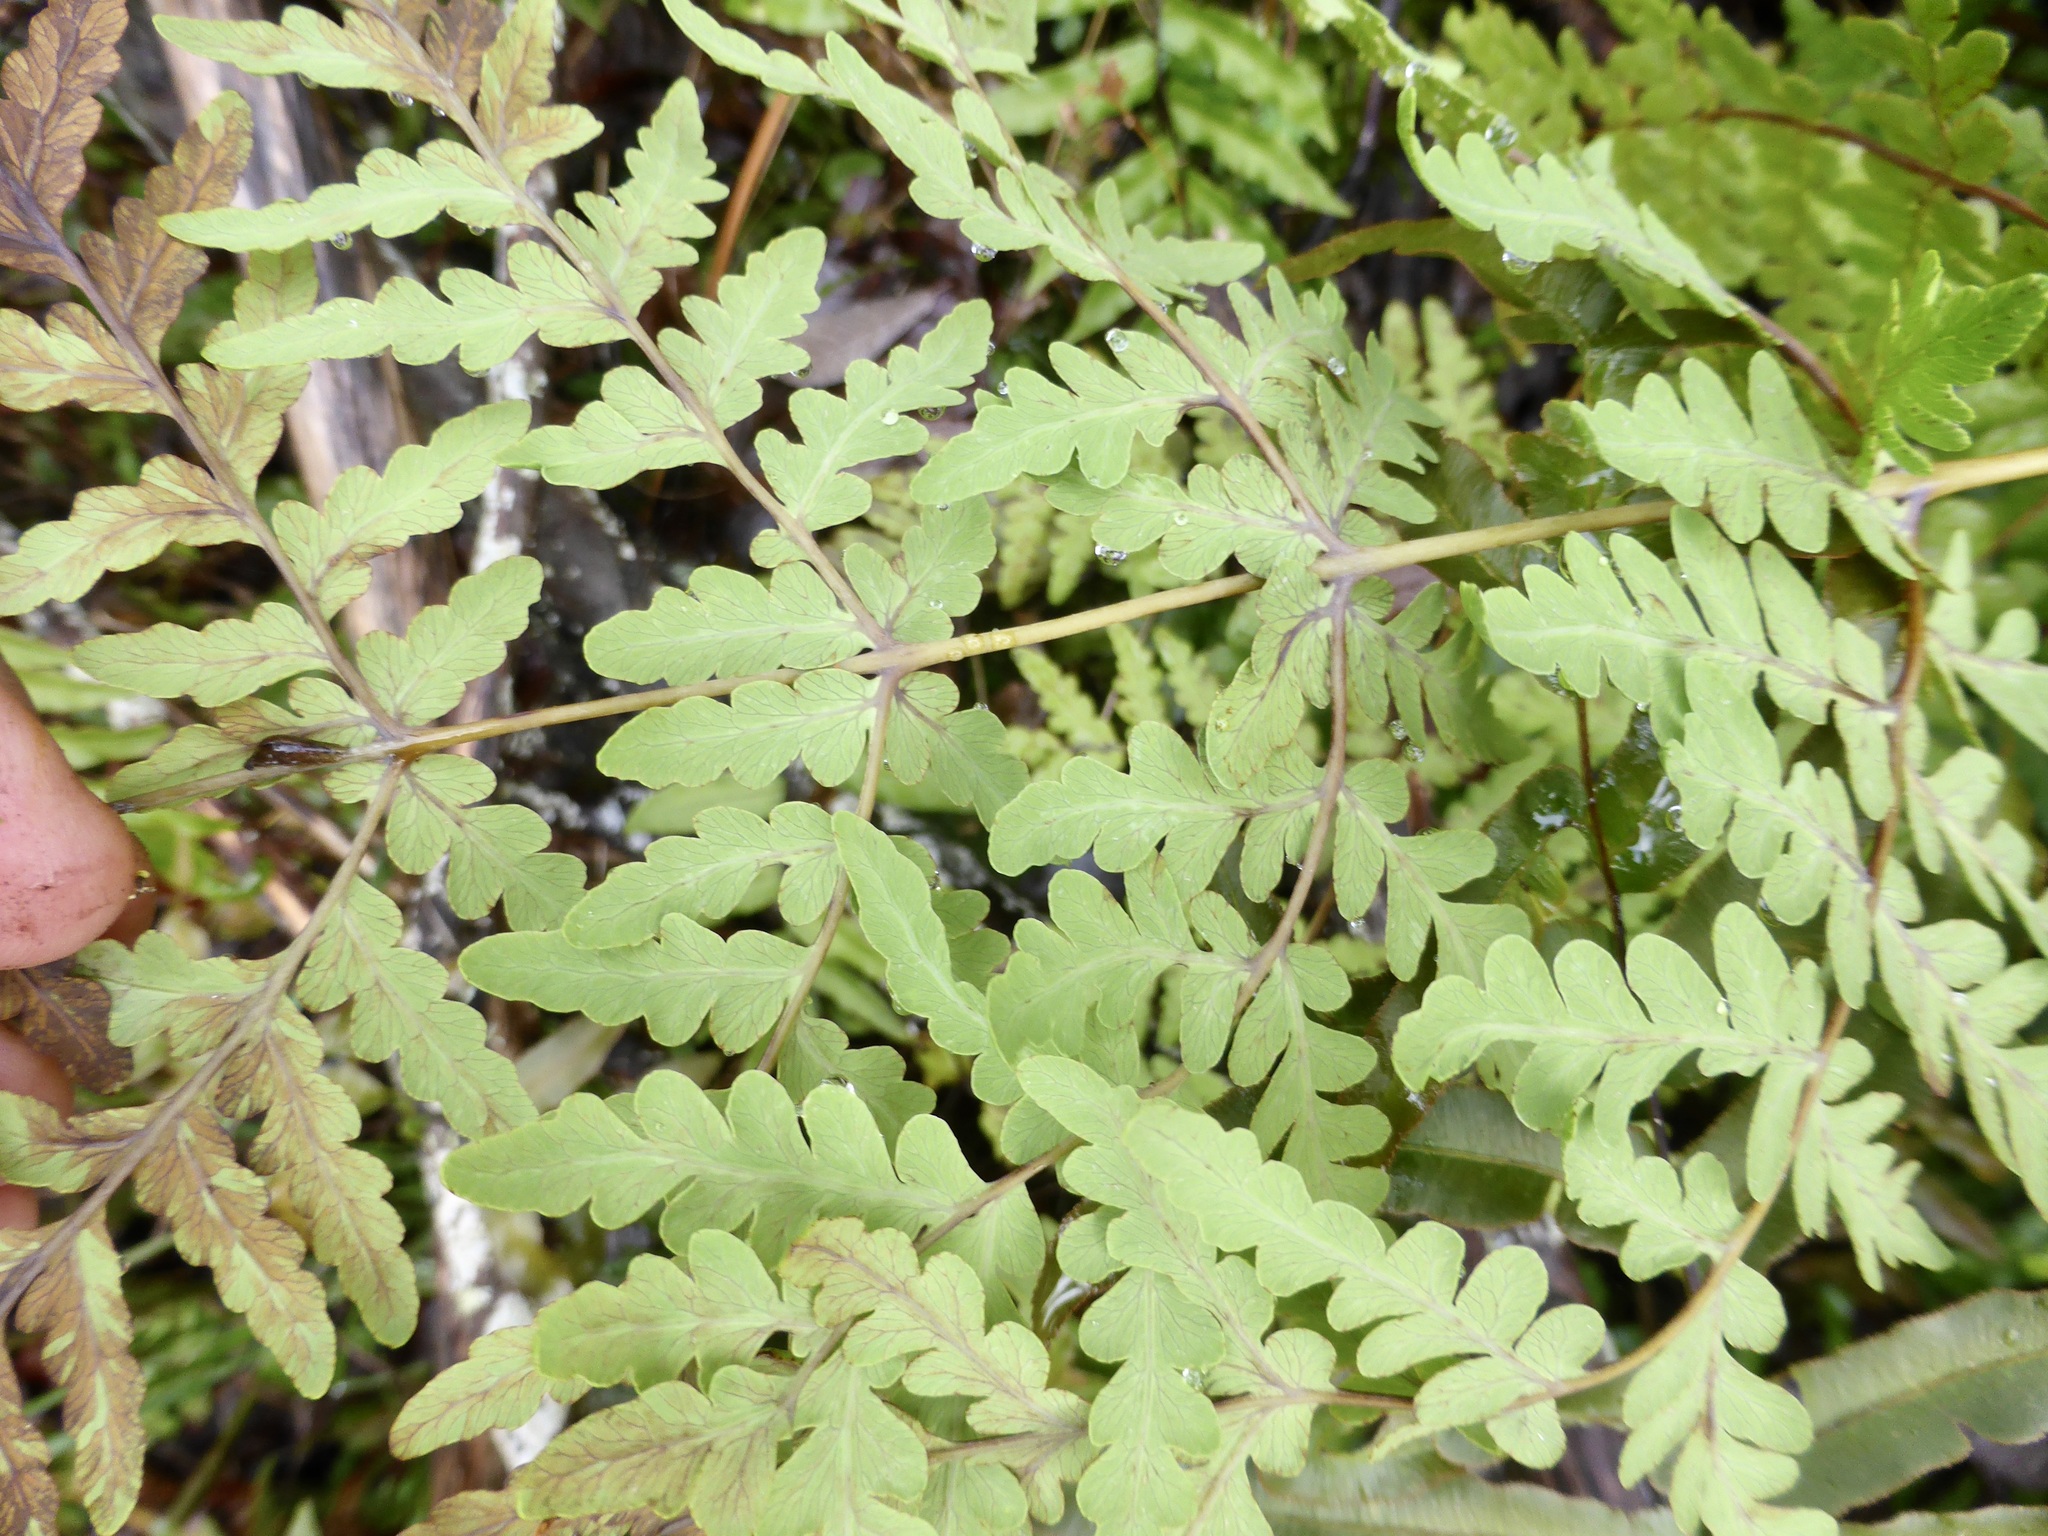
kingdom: Plantae
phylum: Tracheophyta
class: Polypodiopsida
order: Polypodiales
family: Dennstaedtiaceae
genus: Histiopteris
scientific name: Histiopteris incisa
